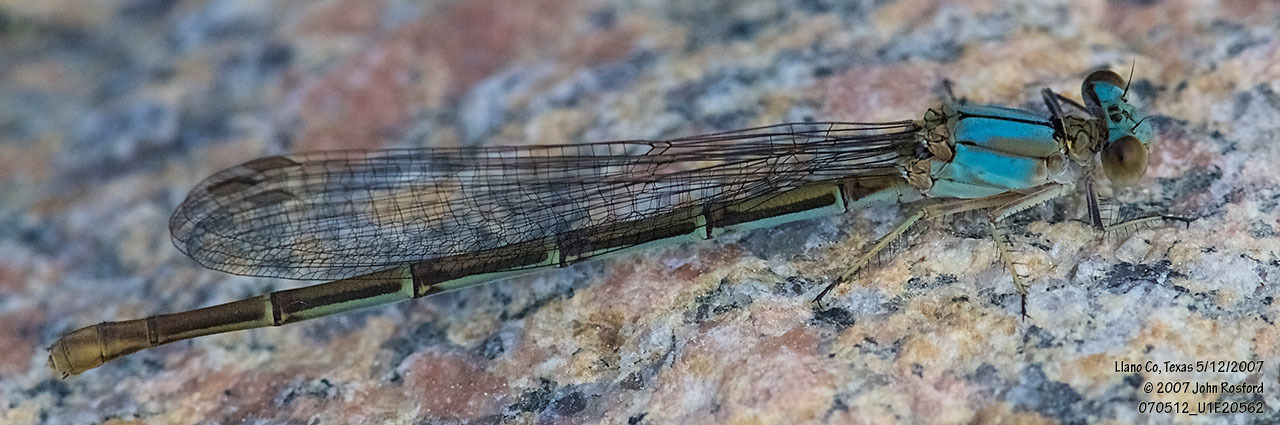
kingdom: Animalia
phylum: Arthropoda
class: Insecta
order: Odonata
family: Coenagrionidae
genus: Argia
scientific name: Argia moesta
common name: Powdered dancer
